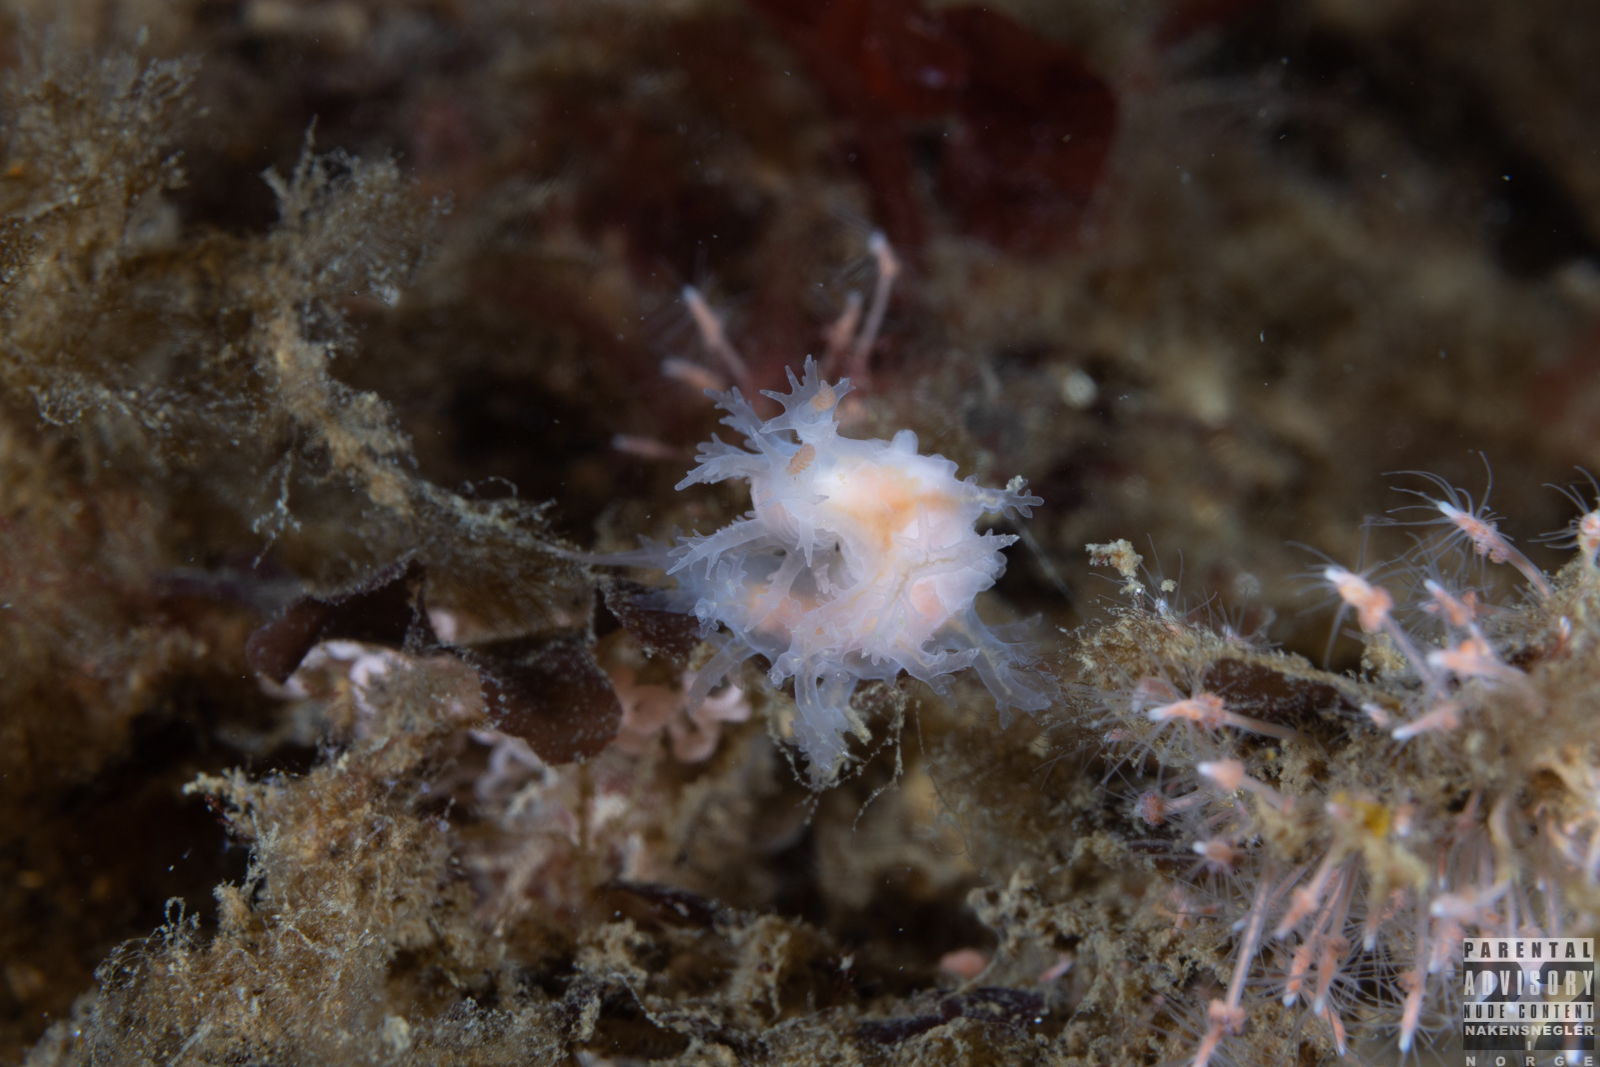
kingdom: Animalia
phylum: Mollusca
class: Gastropoda
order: Nudibranchia
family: Dendronotidae
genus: Dendronotus
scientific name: Dendronotus frondosus
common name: Bushy-backed nudibranch
